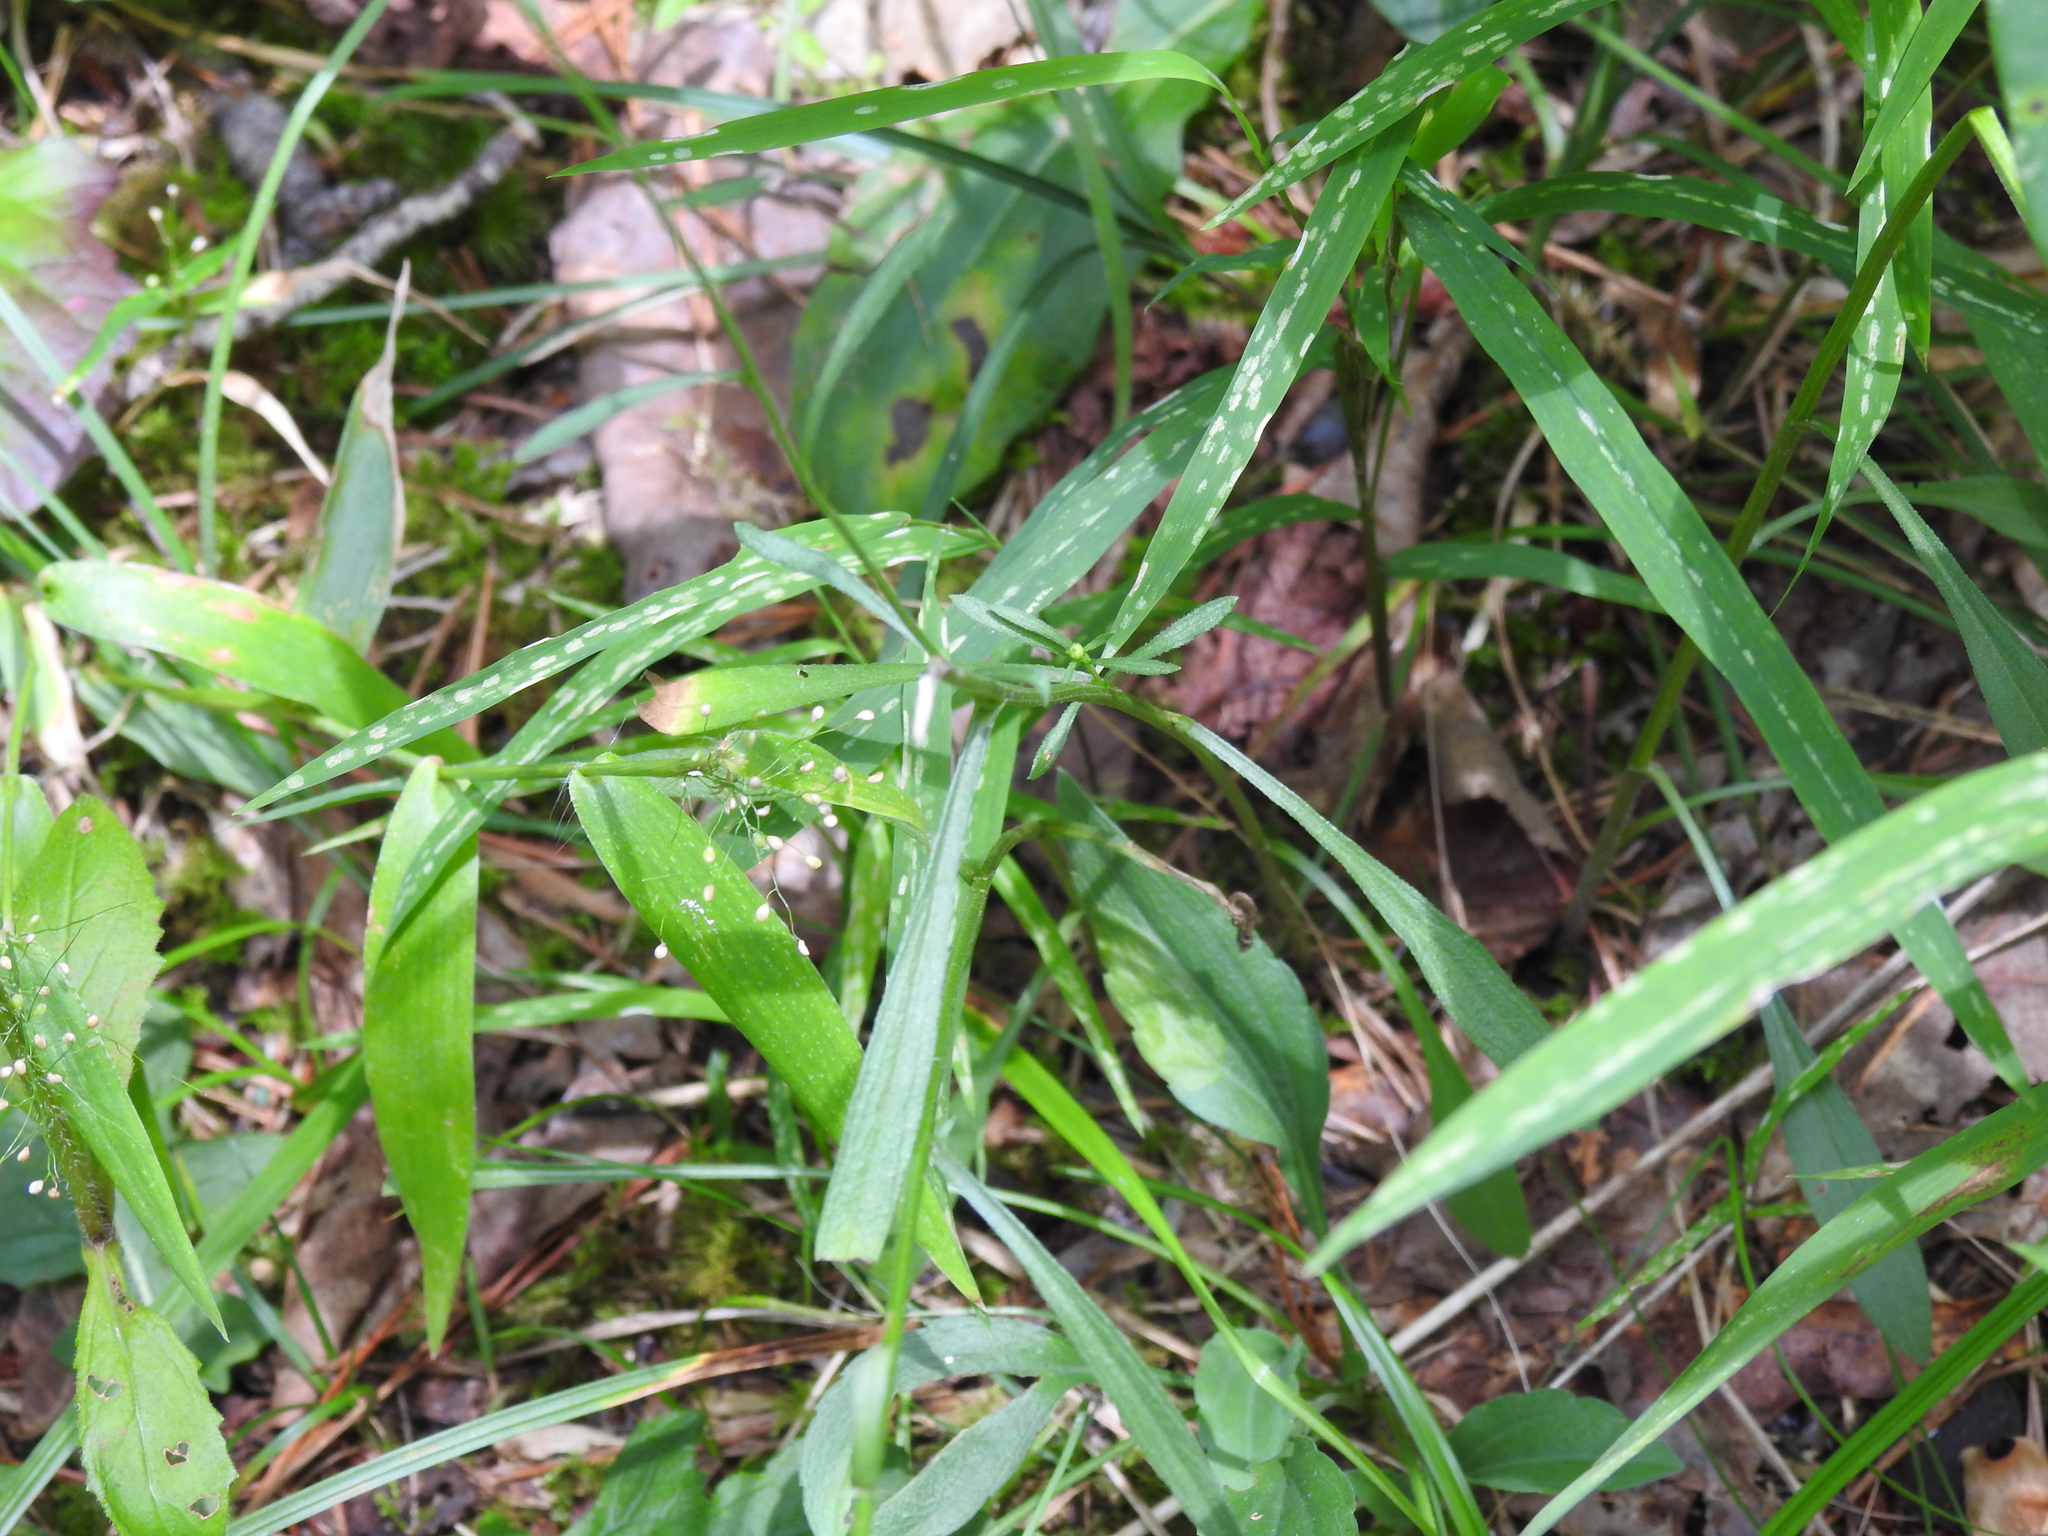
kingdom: Plantae
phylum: Tracheophyta
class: Liliopsida
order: Poales
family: Poaceae
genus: Dichanthelium
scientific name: Dichanthelium sphaerocarpon
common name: Round-fruited panicgrass
